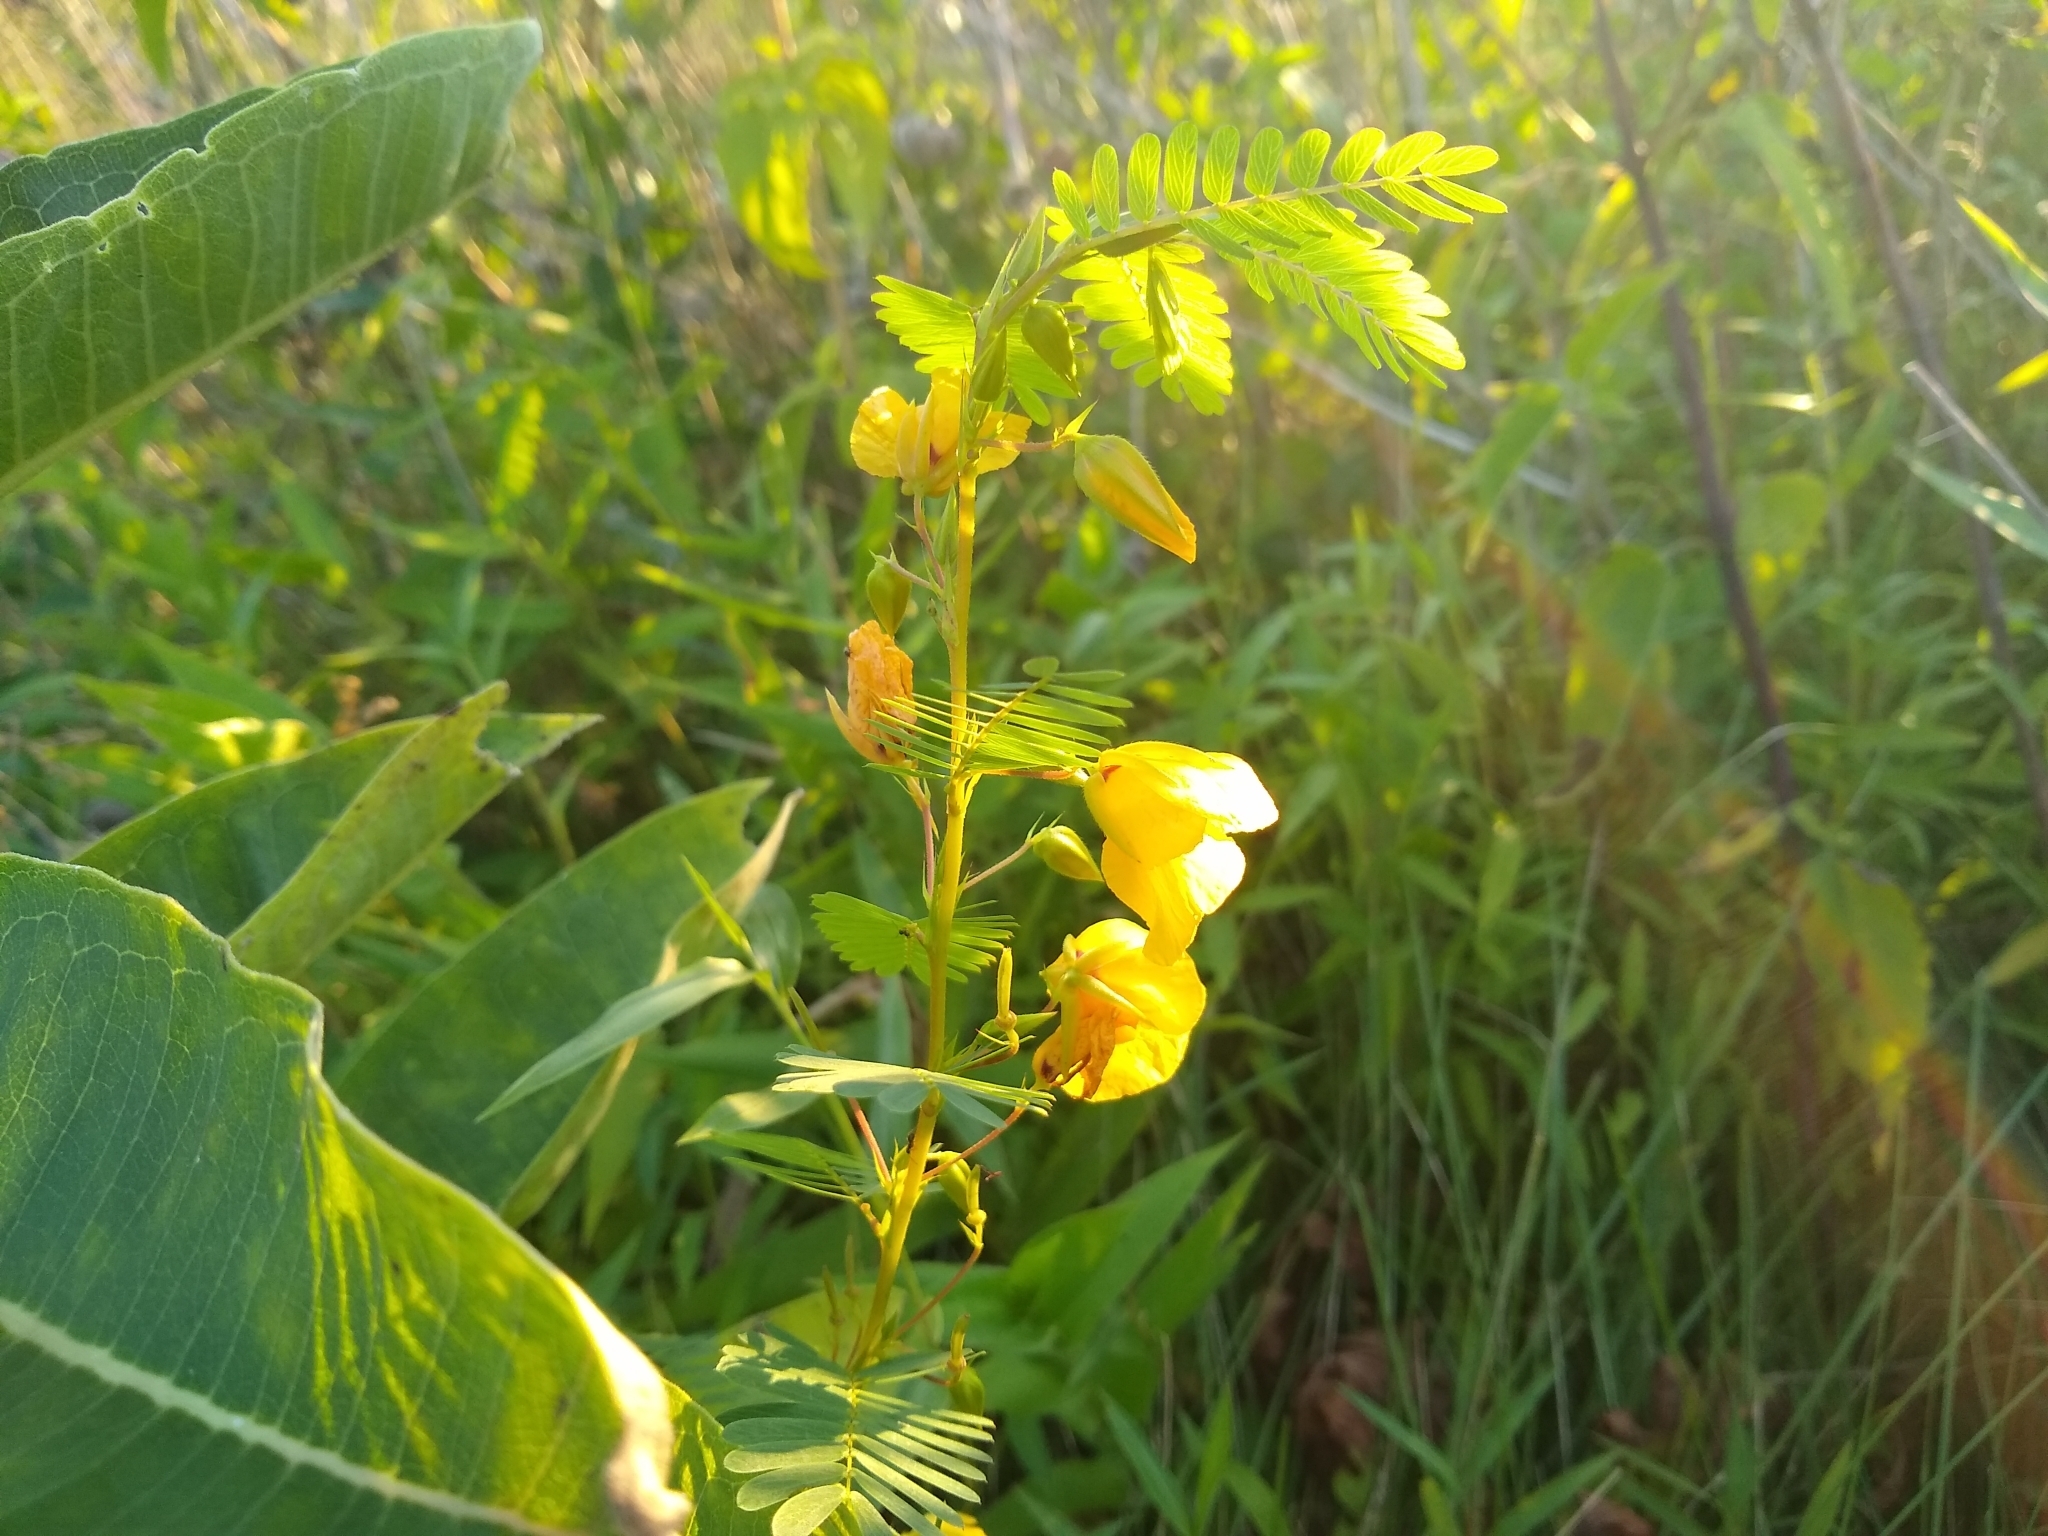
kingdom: Plantae
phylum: Tracheophyta
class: Magnoliopsida
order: Fabales
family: Fabaceae
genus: Chamaecrista
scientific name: Chamaecrista fasciculata
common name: Golden cassia
